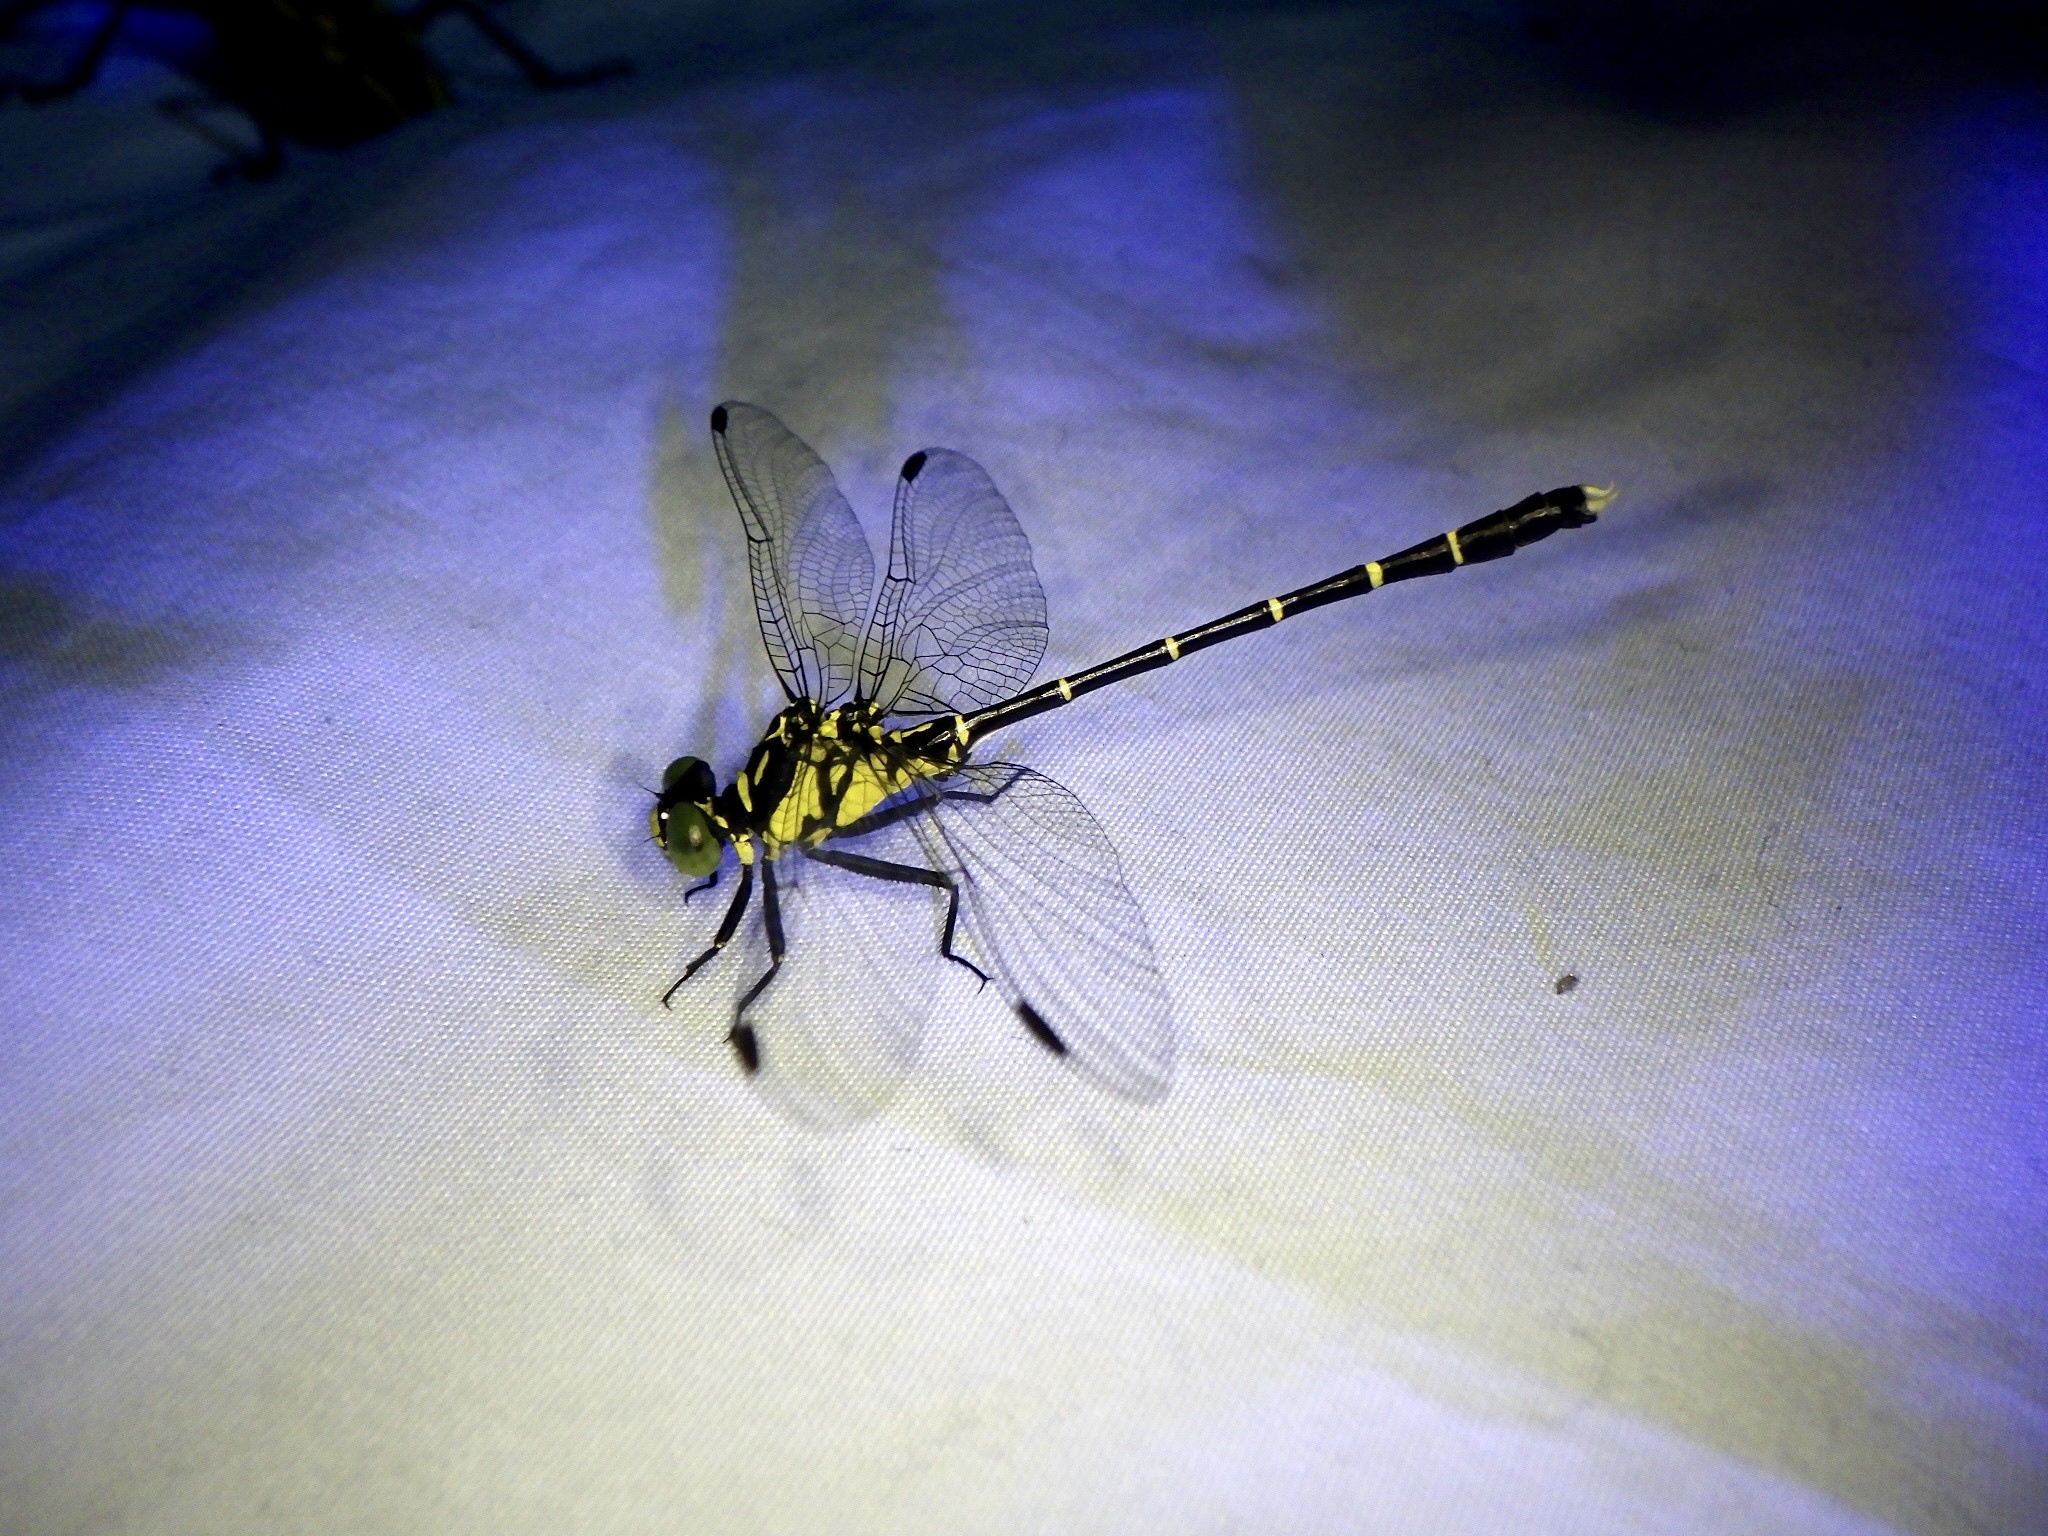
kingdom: Animalia
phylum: Arthropoda
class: Insecta
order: Odonata
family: Gomphidae
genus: Stylogomphus
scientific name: Stylogomphus suzukii
